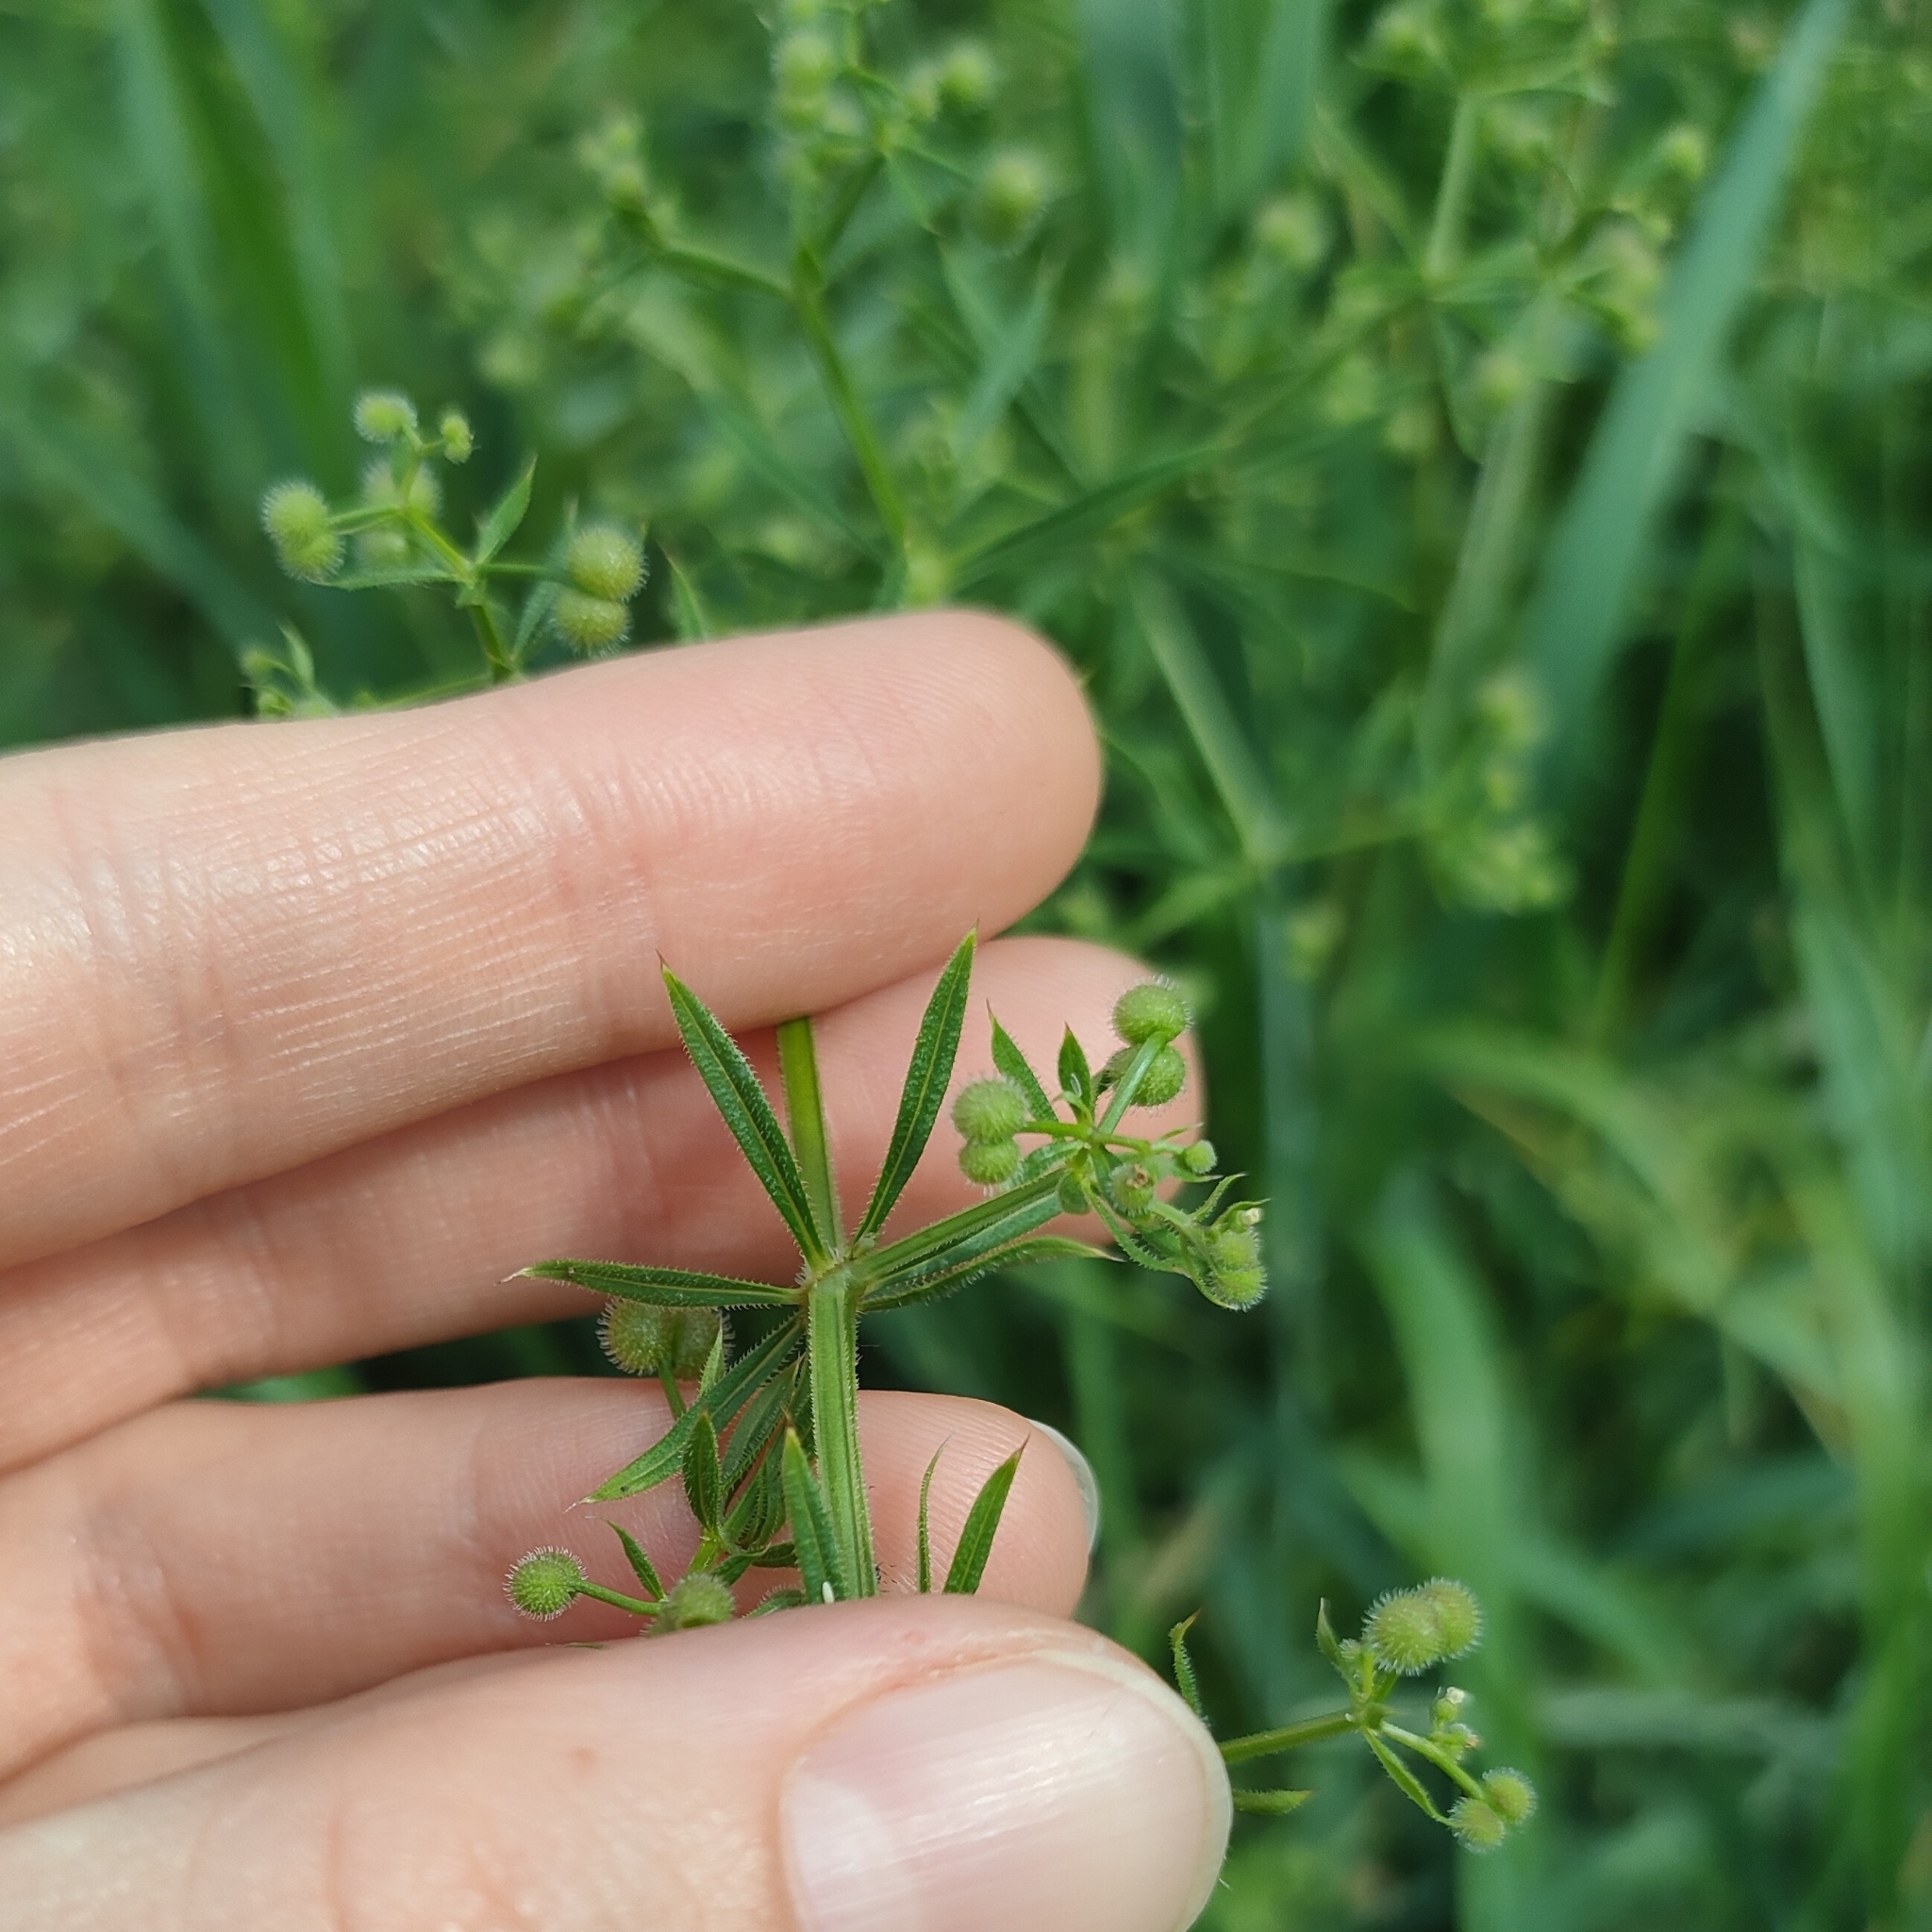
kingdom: Plantae
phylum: Tracheophyta
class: Magnoliopsida
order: Gentianales
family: Rubiaceae
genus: Galium
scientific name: Galium aparine
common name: Cleavers
